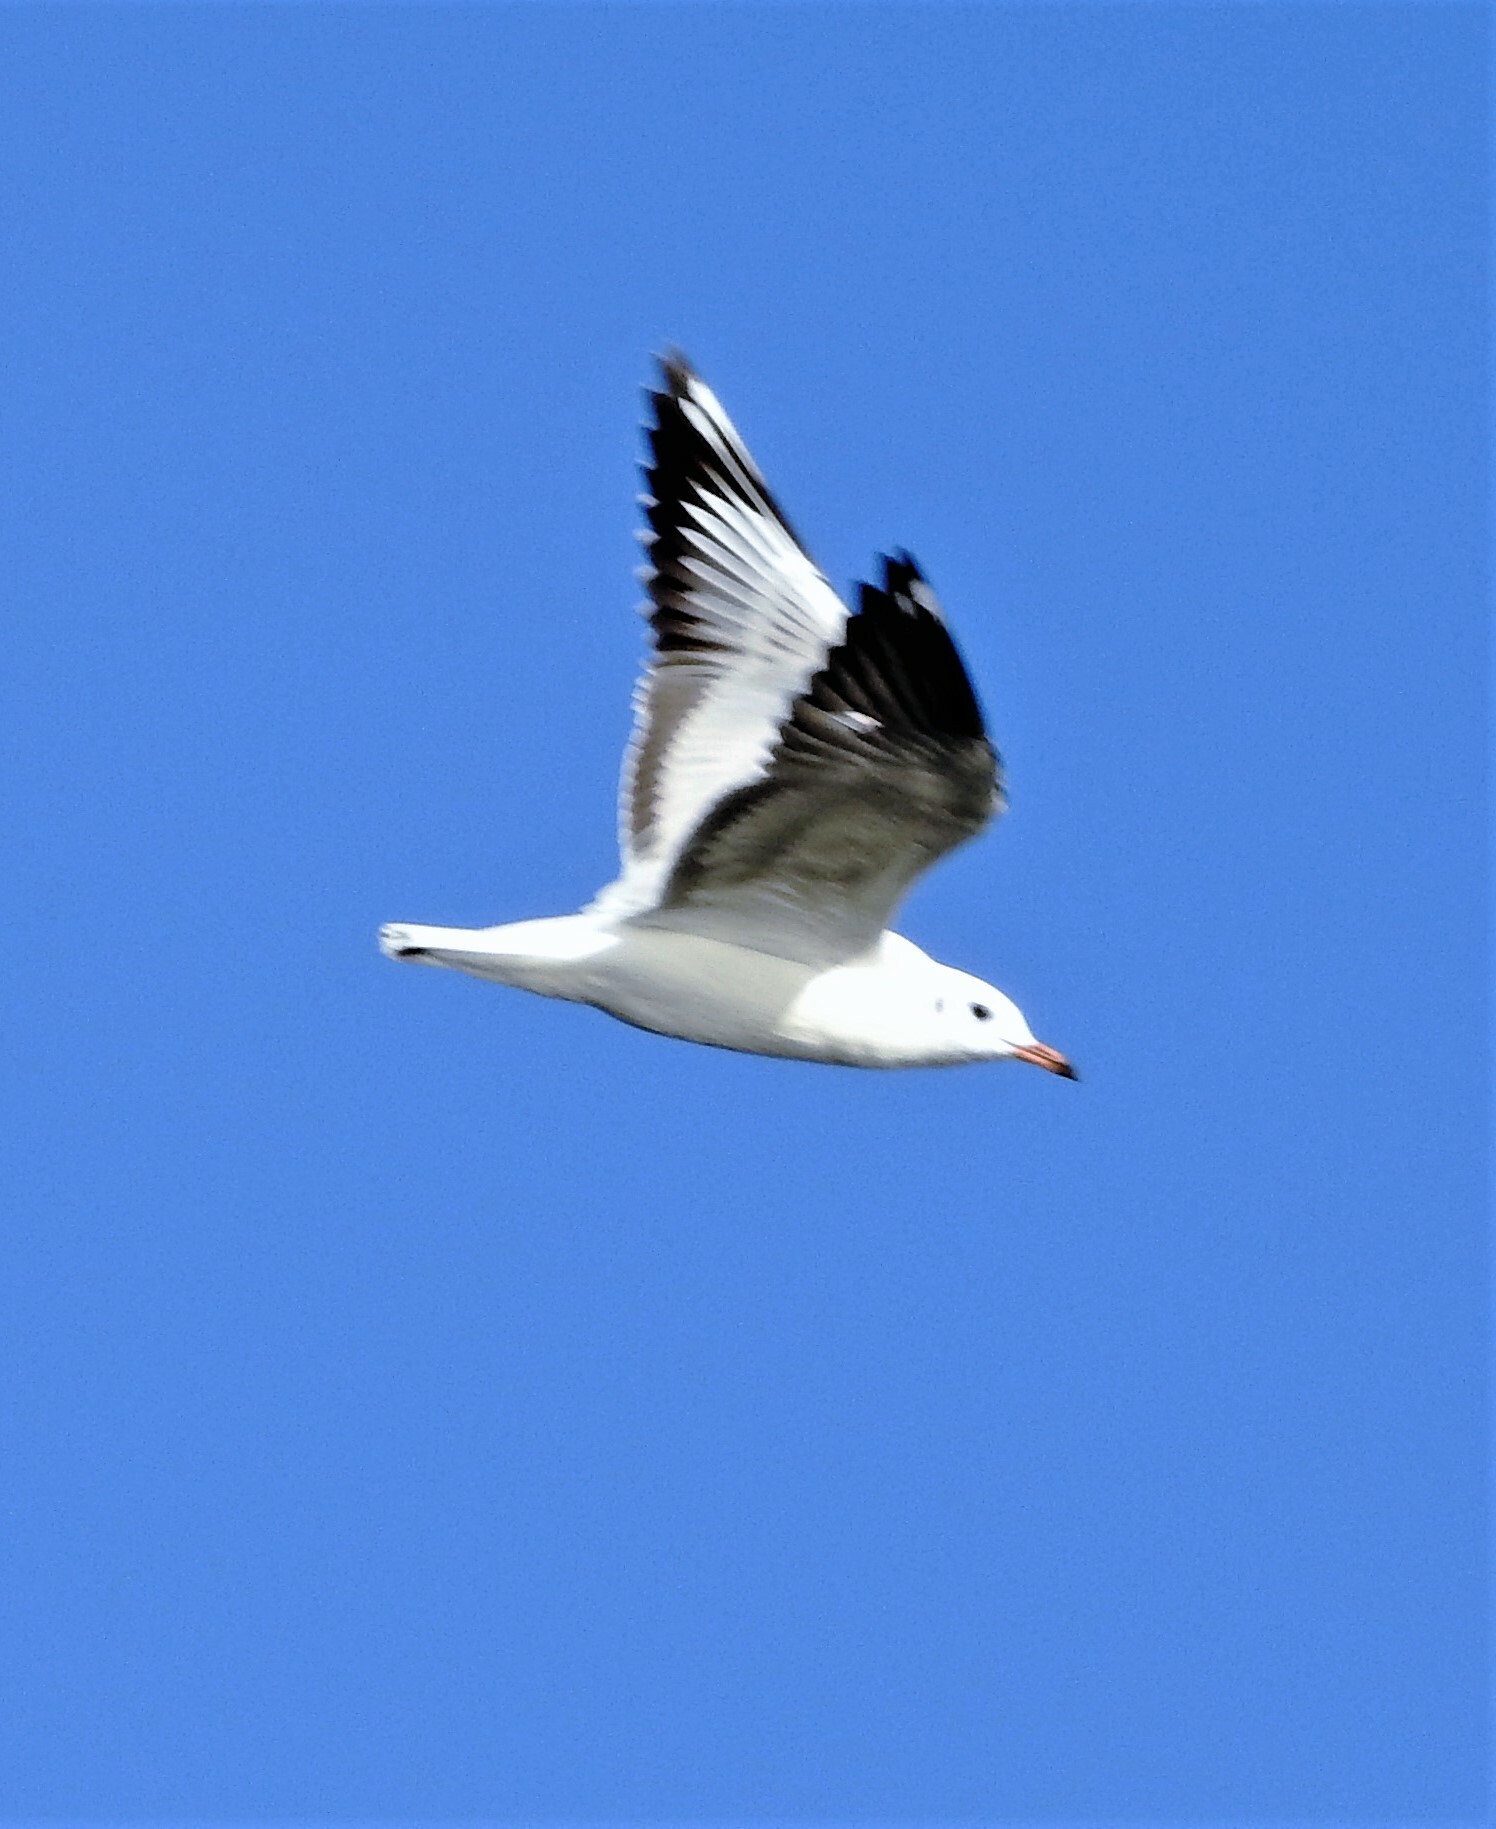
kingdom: Animalia
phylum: Chordata
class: Aves
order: Charadriiformes
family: Laridae
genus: Chroicocephalus
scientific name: Chroicocephalus maculipennis
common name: Brown-hooded gull
